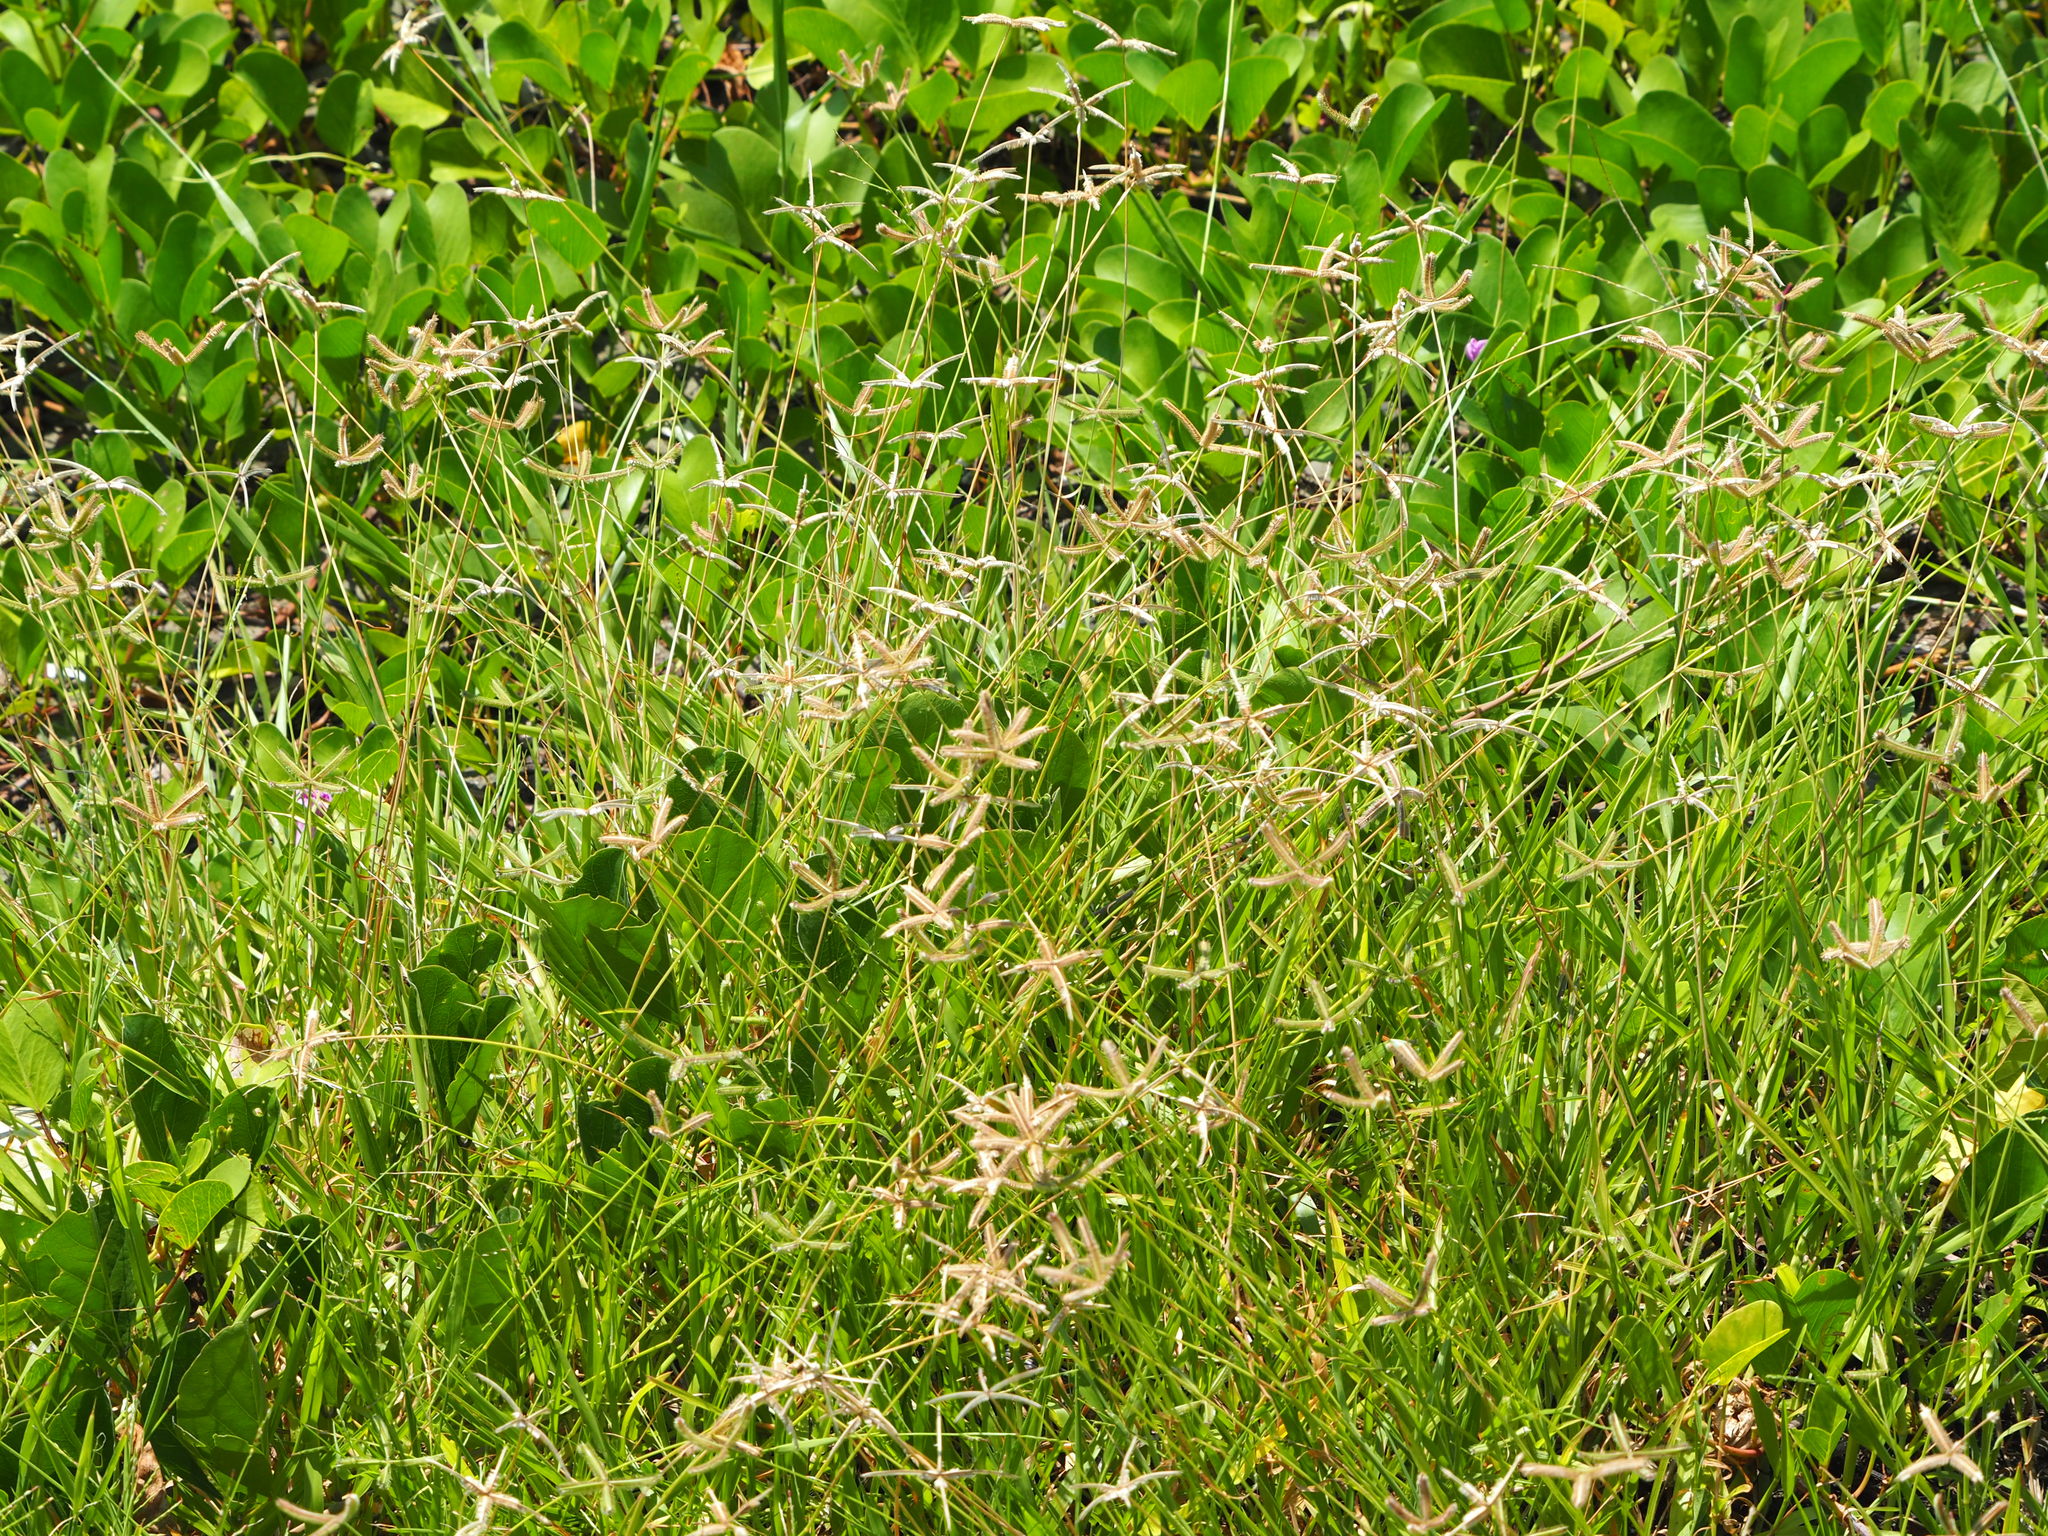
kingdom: Plantae
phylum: Tracheophyta
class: Liliopsida
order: Poales
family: Poaceae
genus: Dactyloctenium
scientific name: Dactyloctenium aegyptium
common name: Egyptian grass
